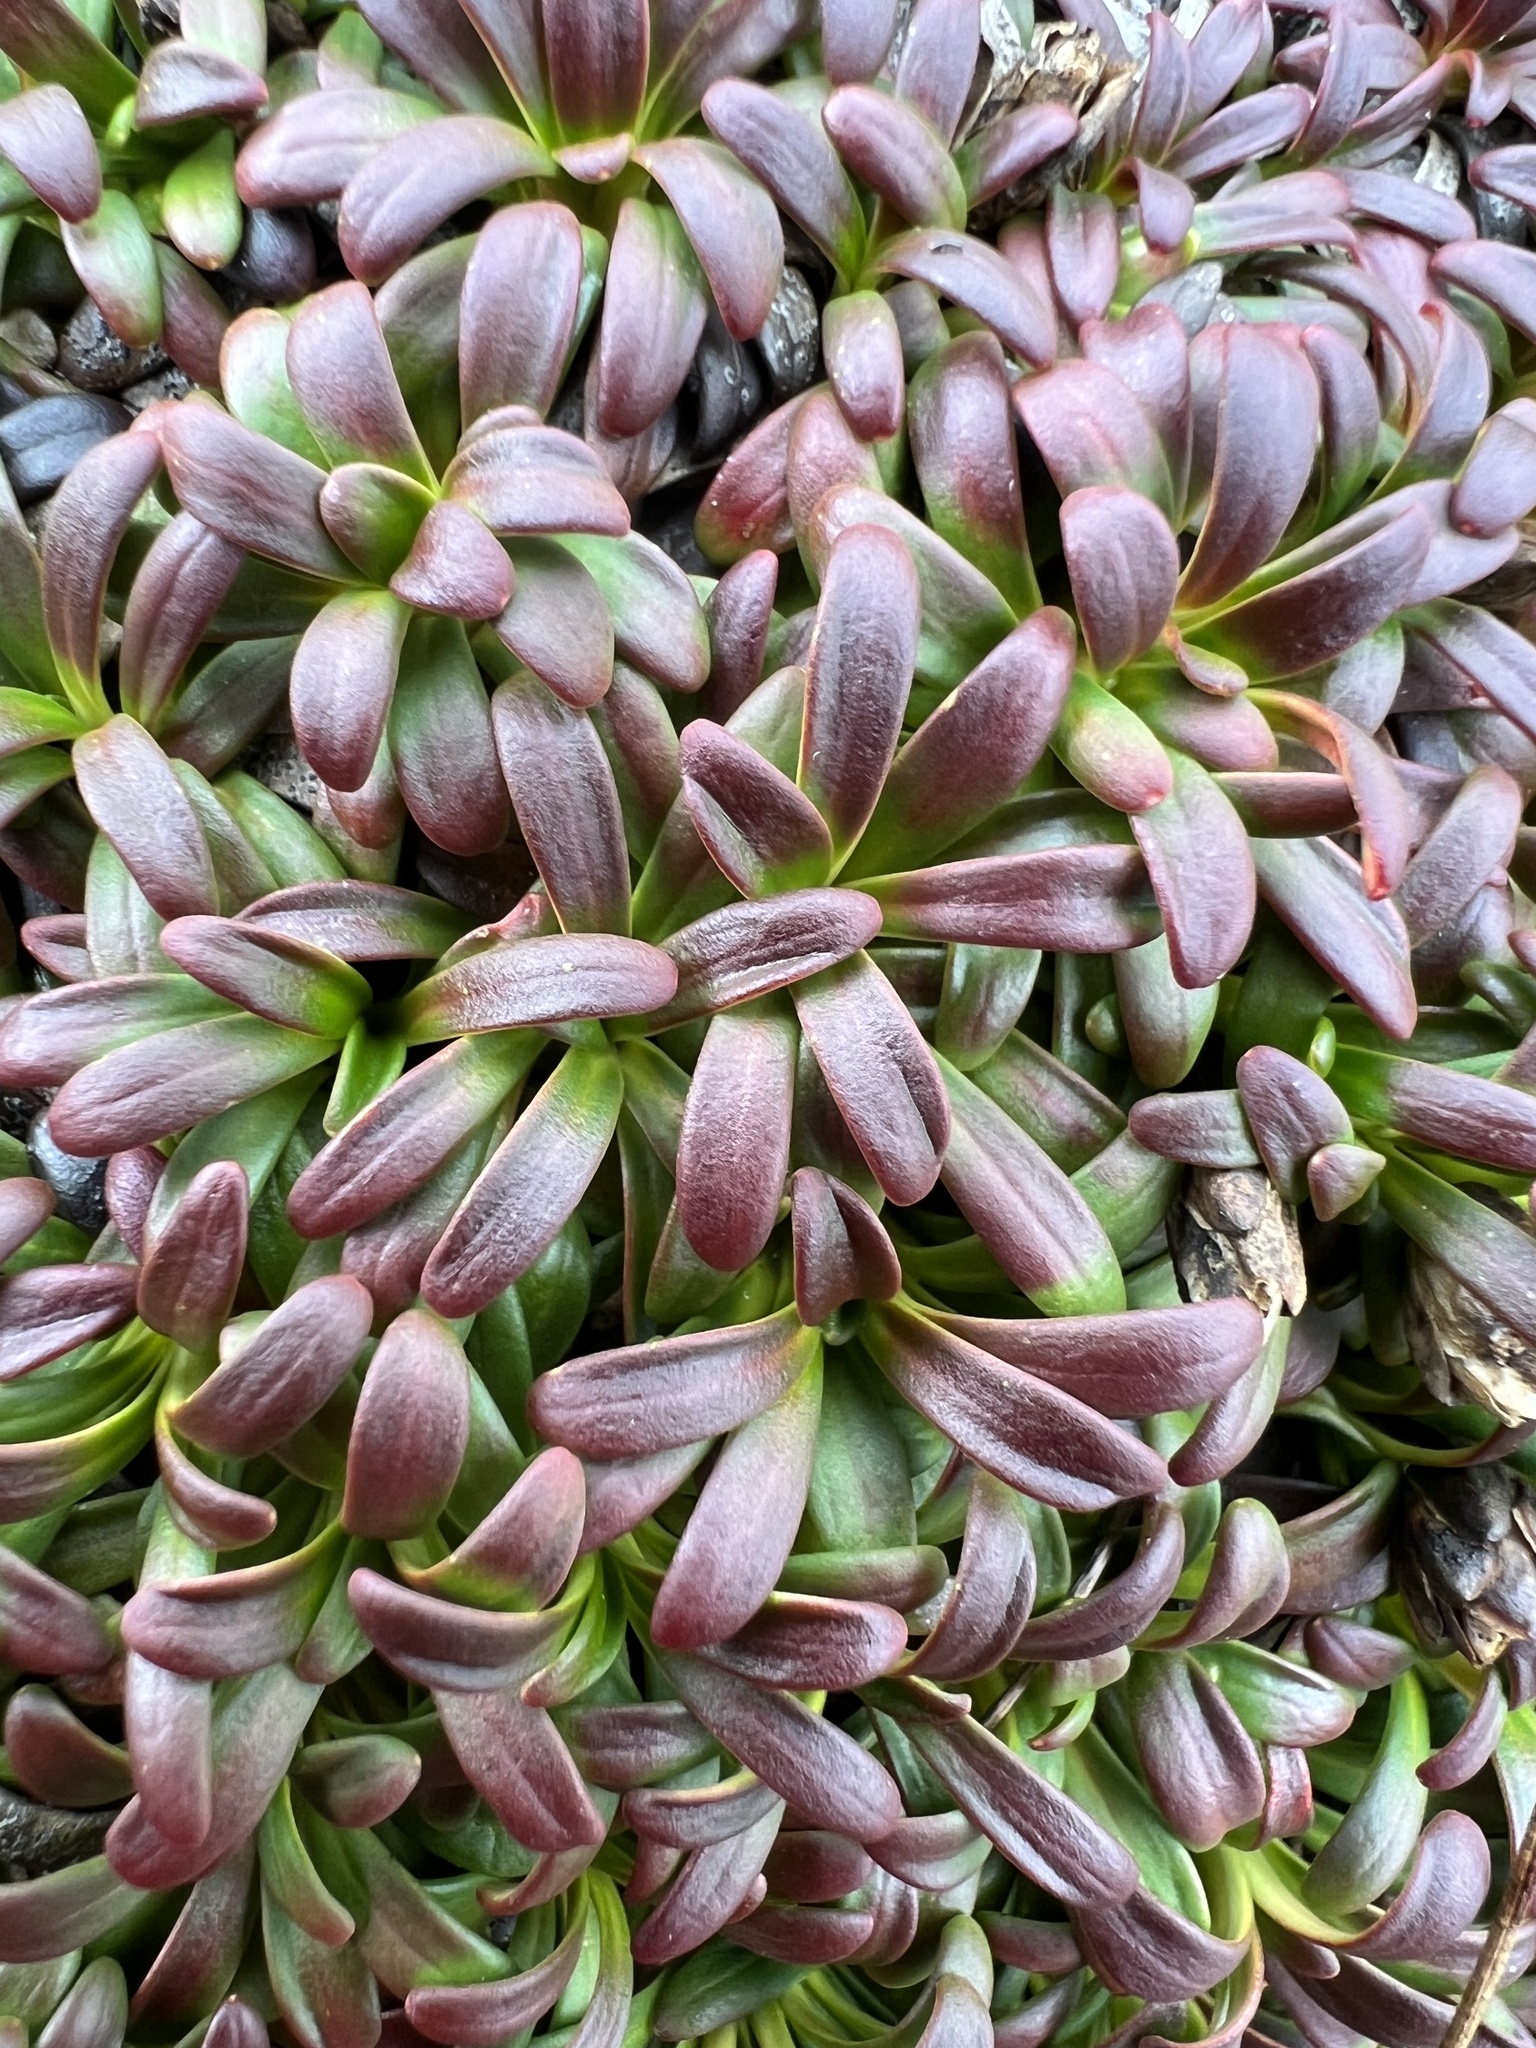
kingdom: Plantae
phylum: Tracheophyta
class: Magnoliopsida
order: Ericales
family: Diapensiaceae
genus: Diapensia
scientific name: Diapensia lapponica
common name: Diapensia
